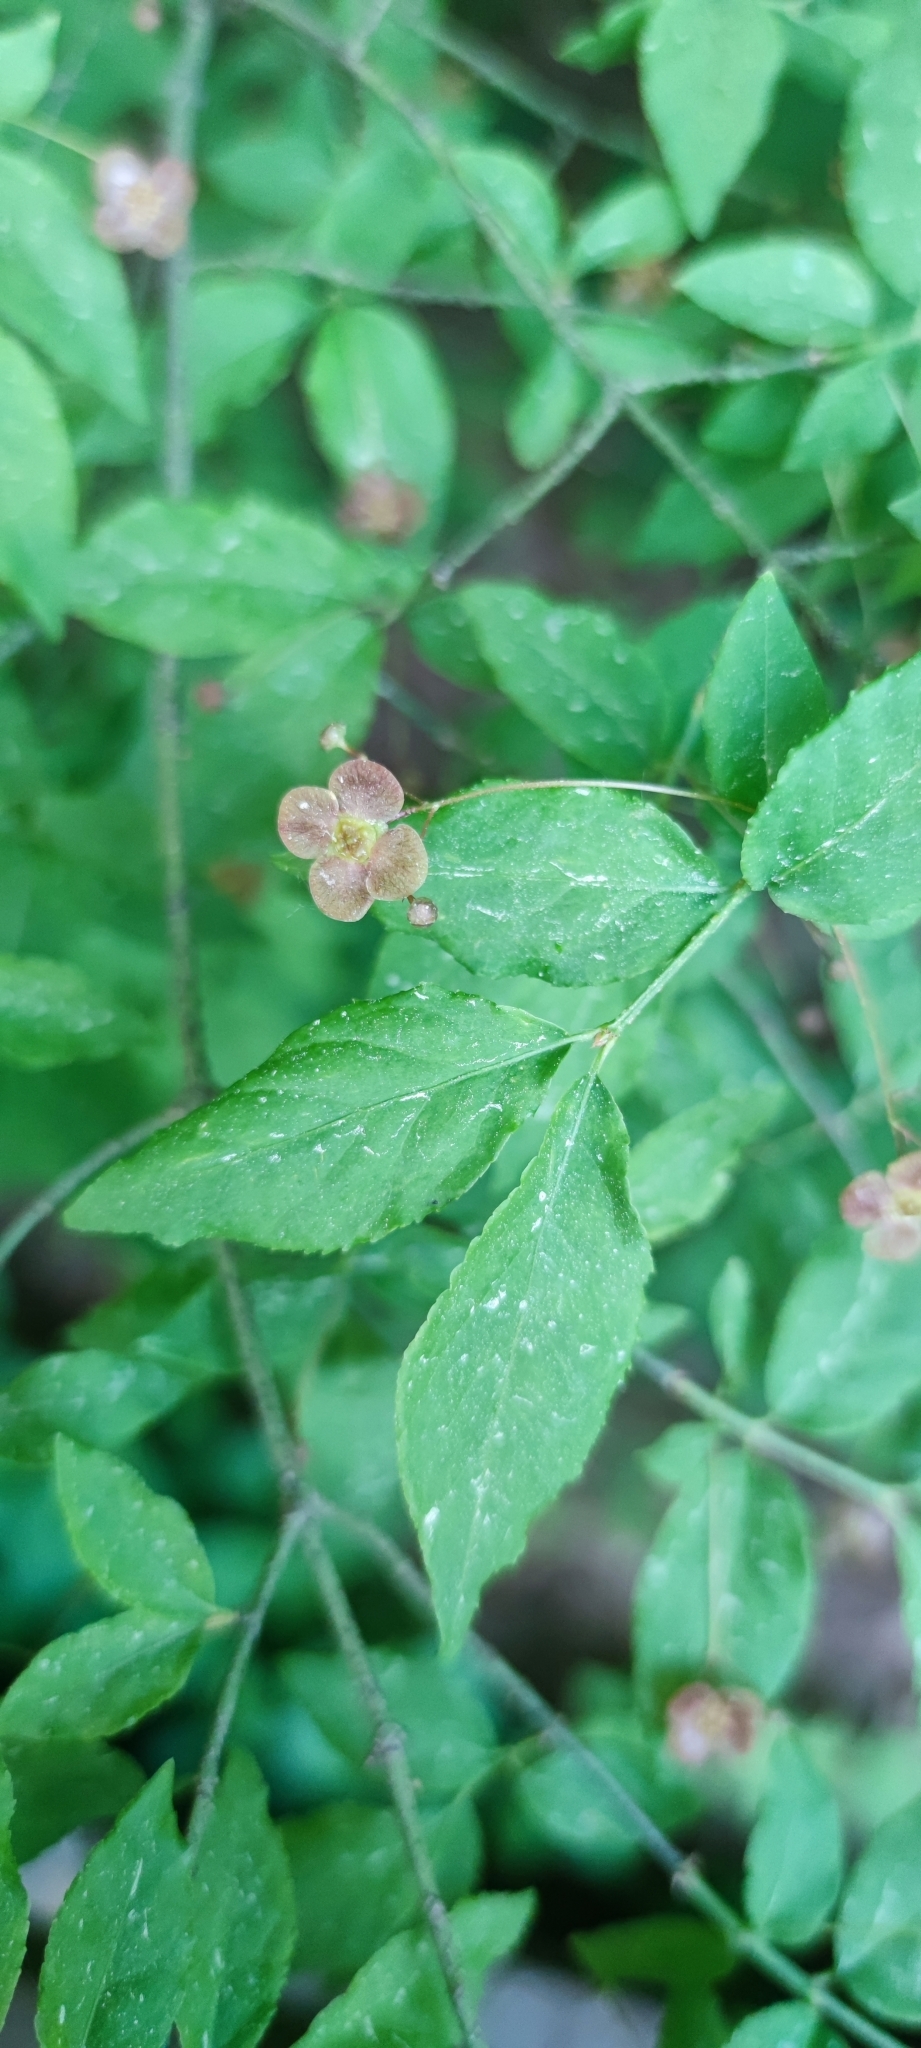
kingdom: Plantae
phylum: Tracheophyta
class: Magnoliopsida
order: Celastrales
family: Celastraceae
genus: Euonymus
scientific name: Euonymus verrucosus
